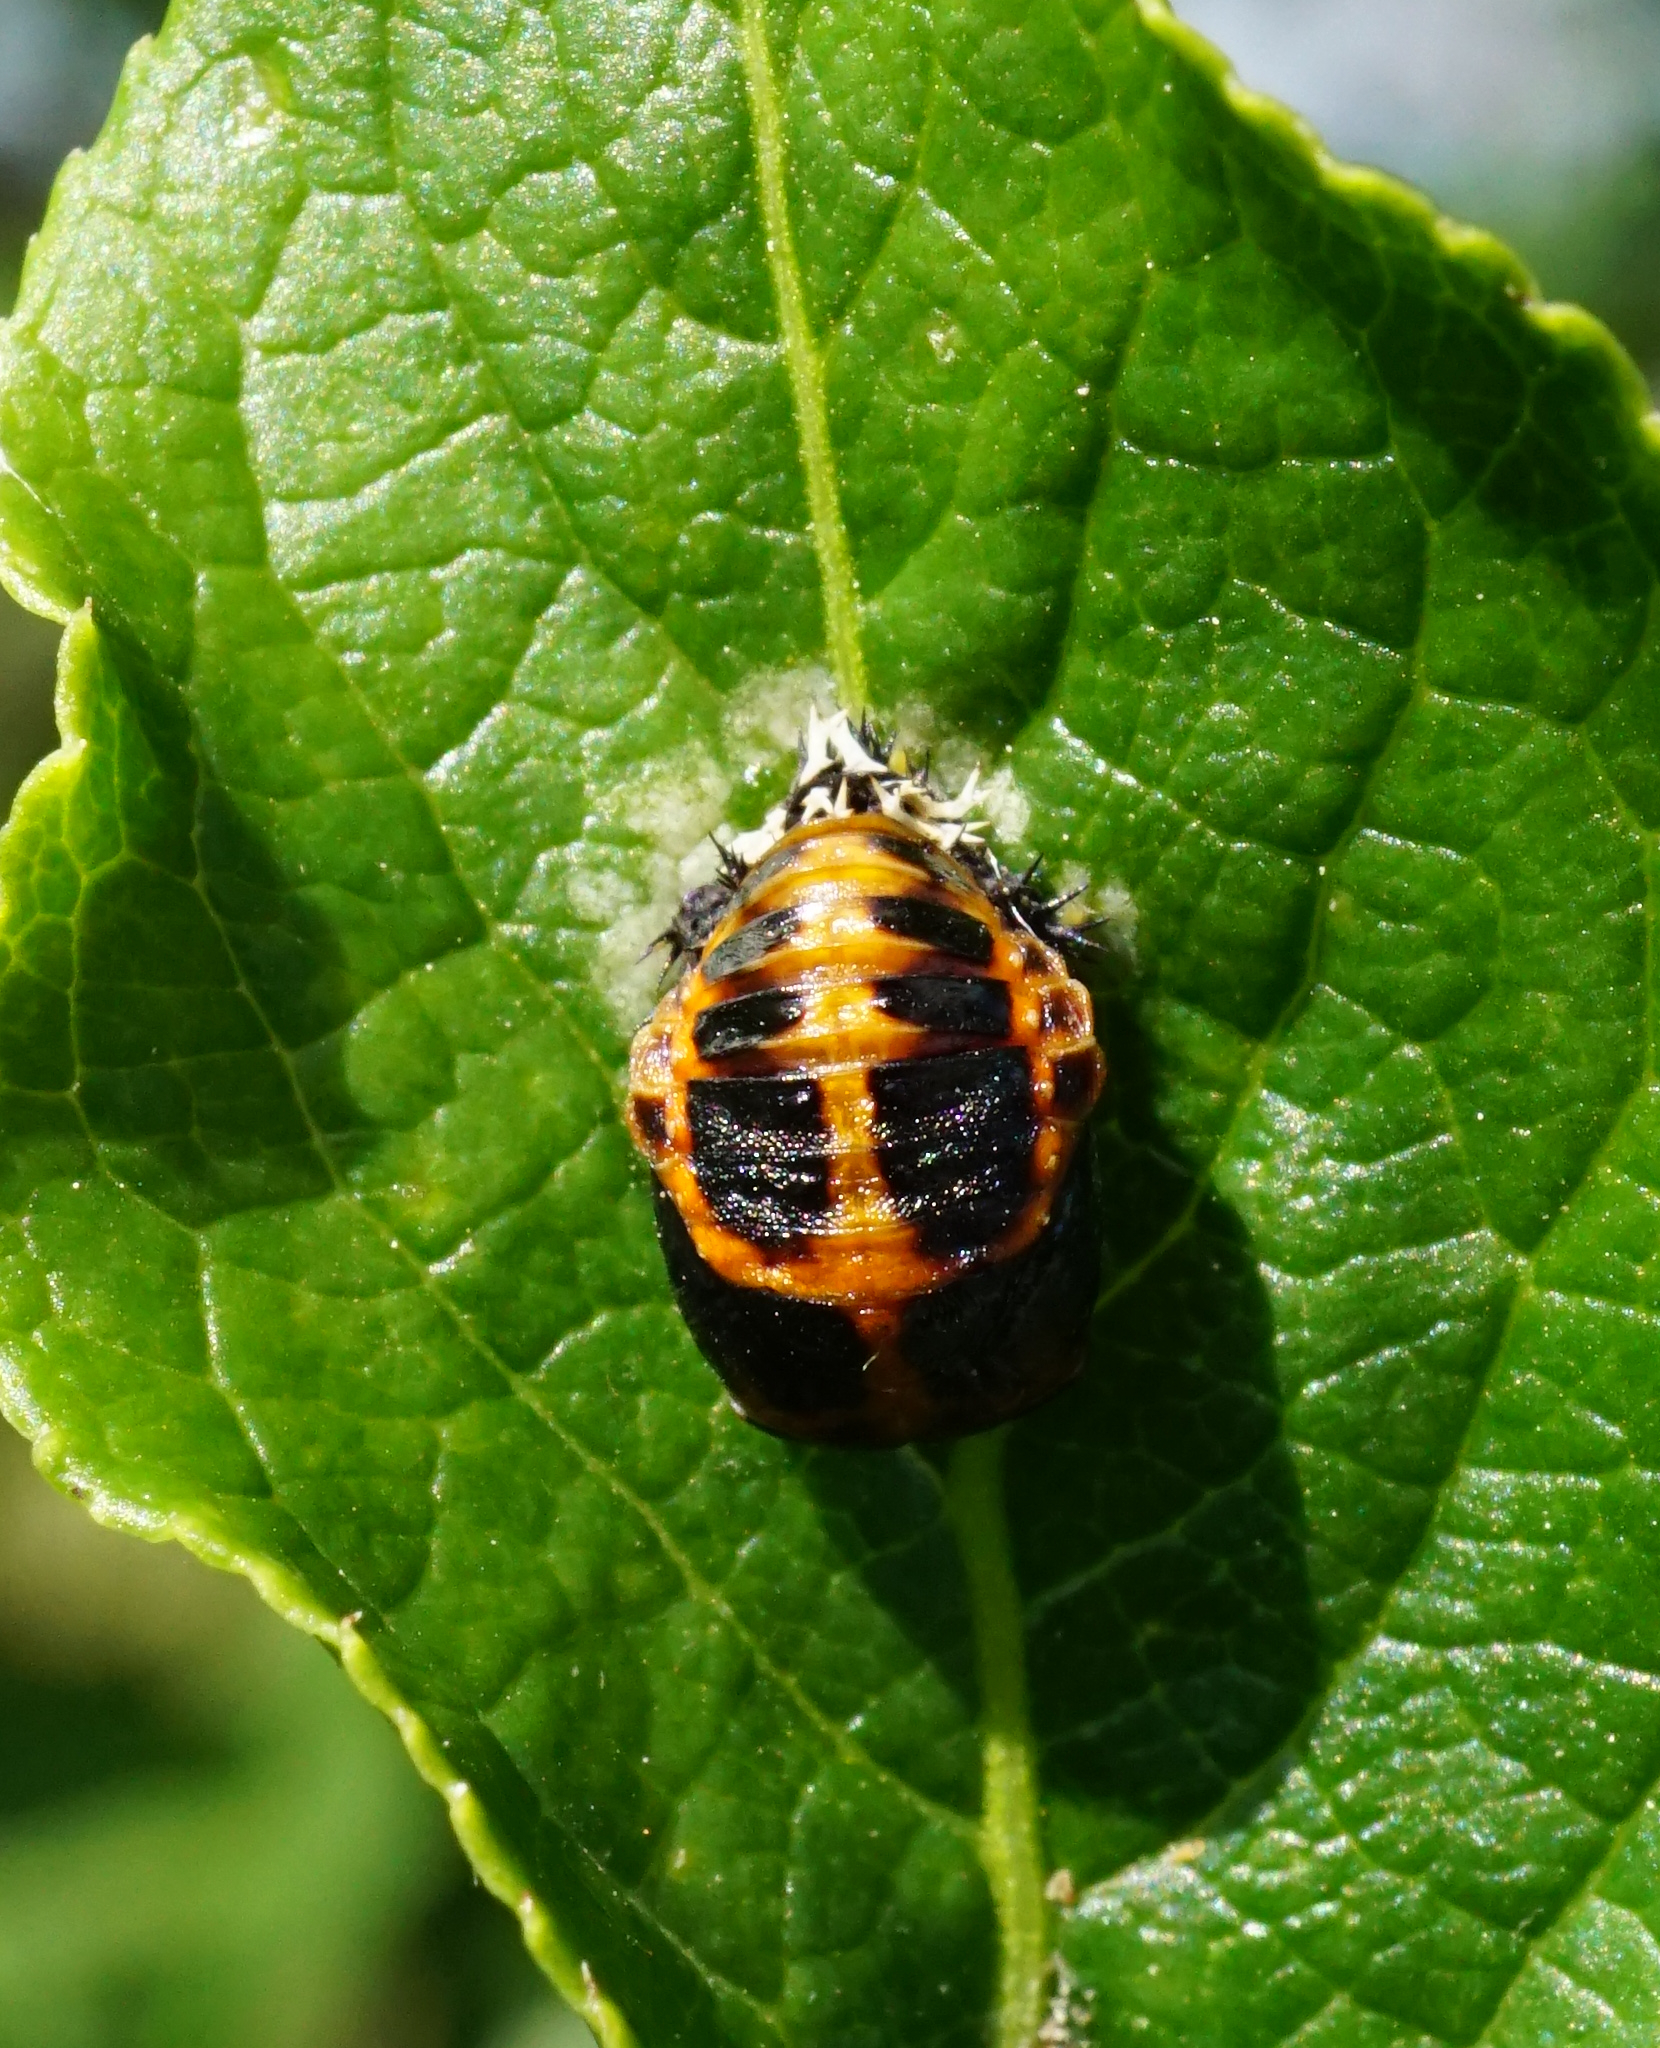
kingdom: Animalia
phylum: Arthropoda
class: Insecta
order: Coleoptera
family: Coccinellidae
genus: Harmonia
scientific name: Harmonia axyridis
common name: Harlequin ladybird
